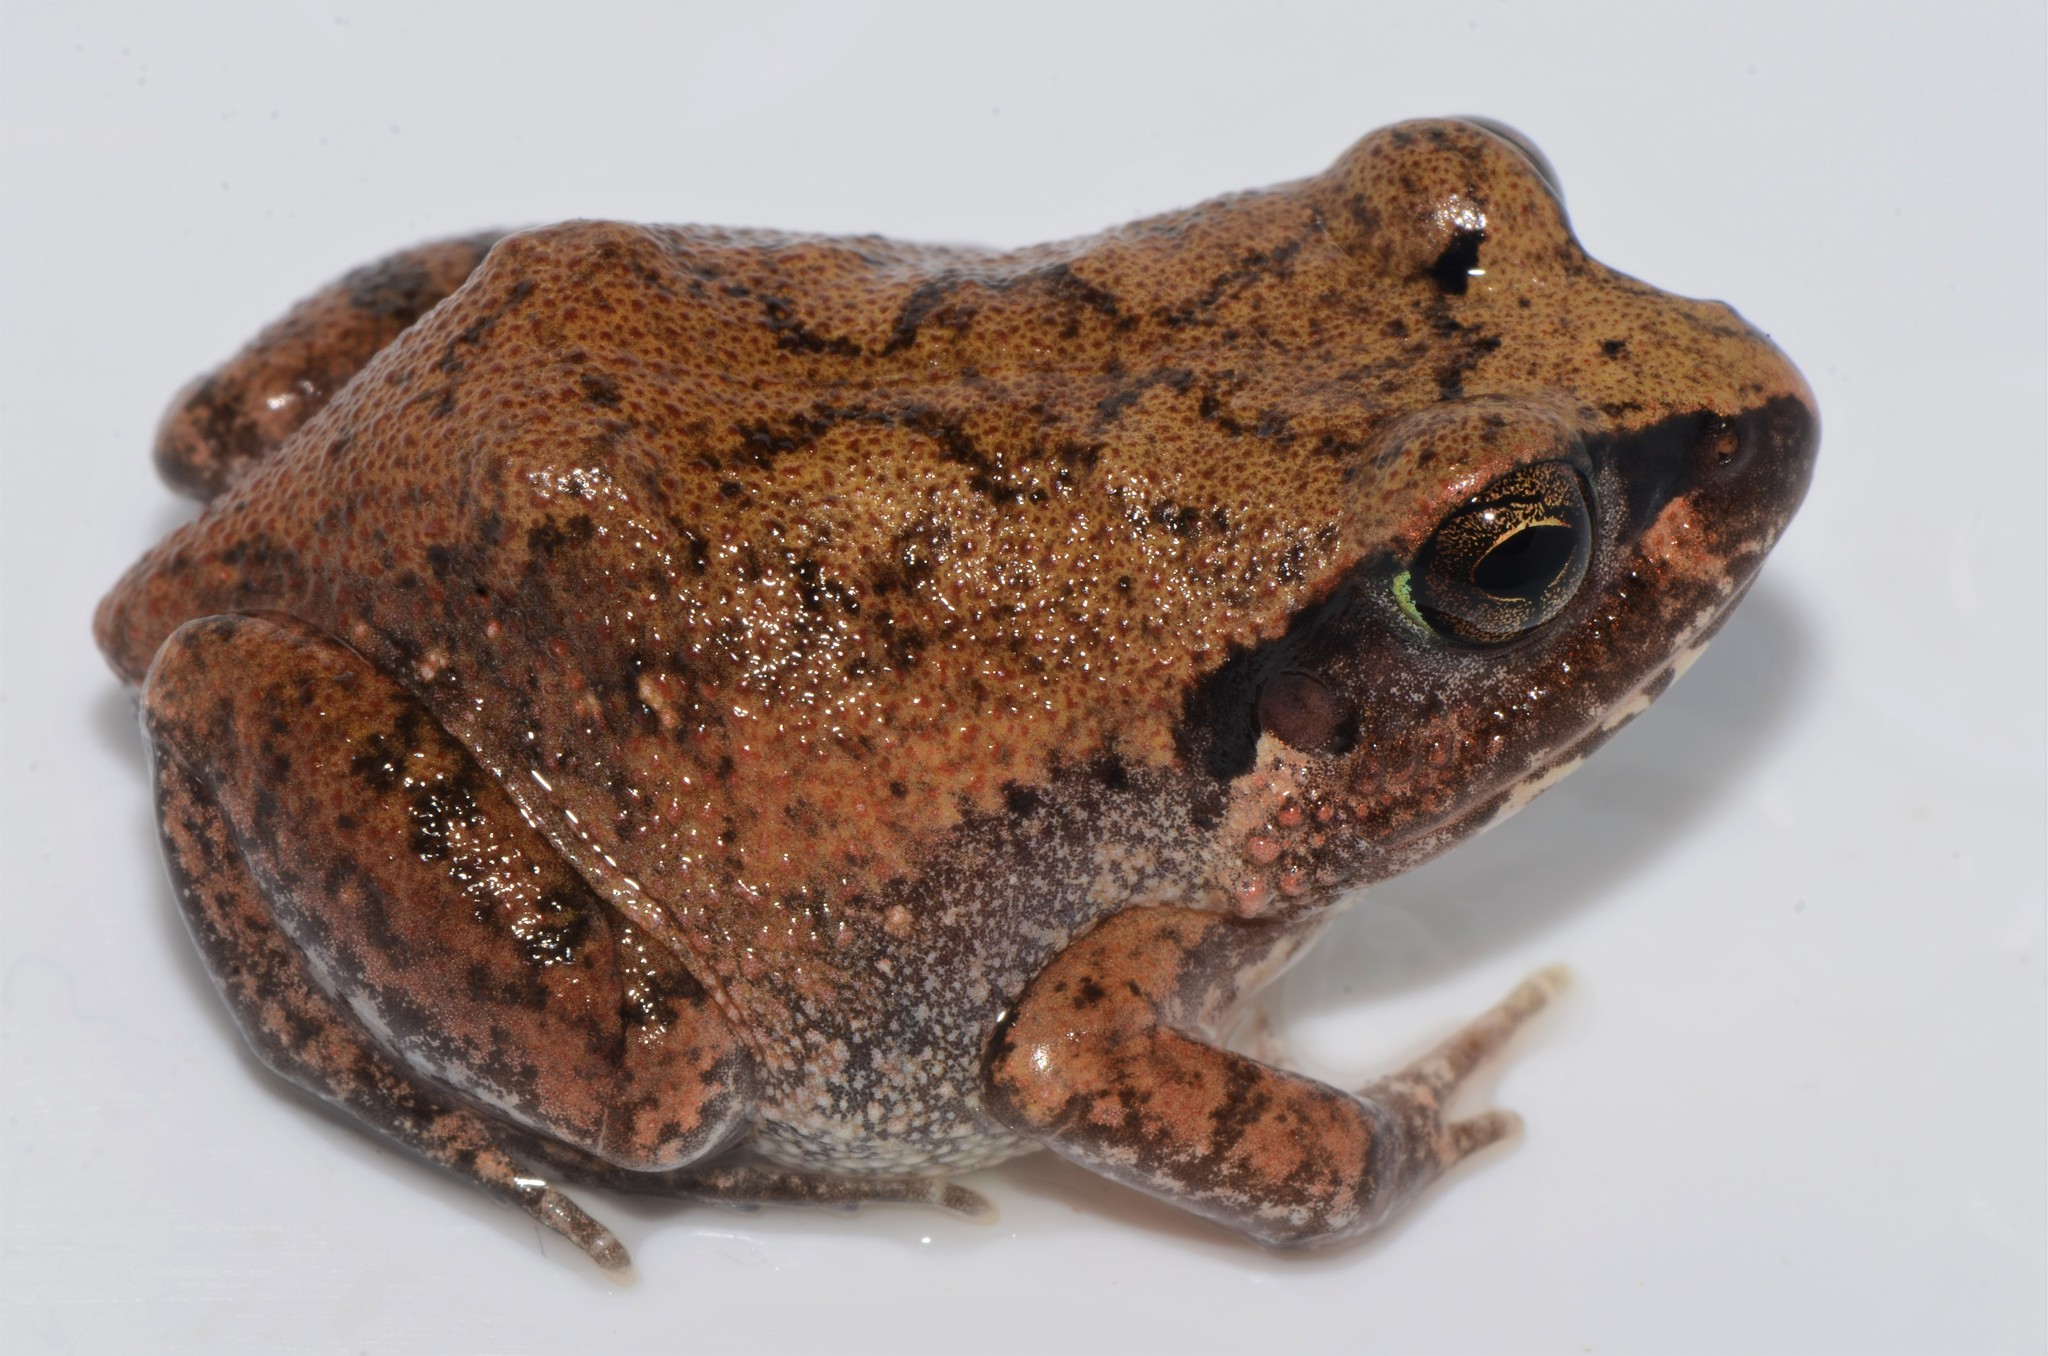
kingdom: Animalia
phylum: Chordata
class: Amphibia
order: Anura
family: Arthroleptidae
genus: Arthroleptis
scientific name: Arthroleptis stenodactylus
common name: Dune squeaker
